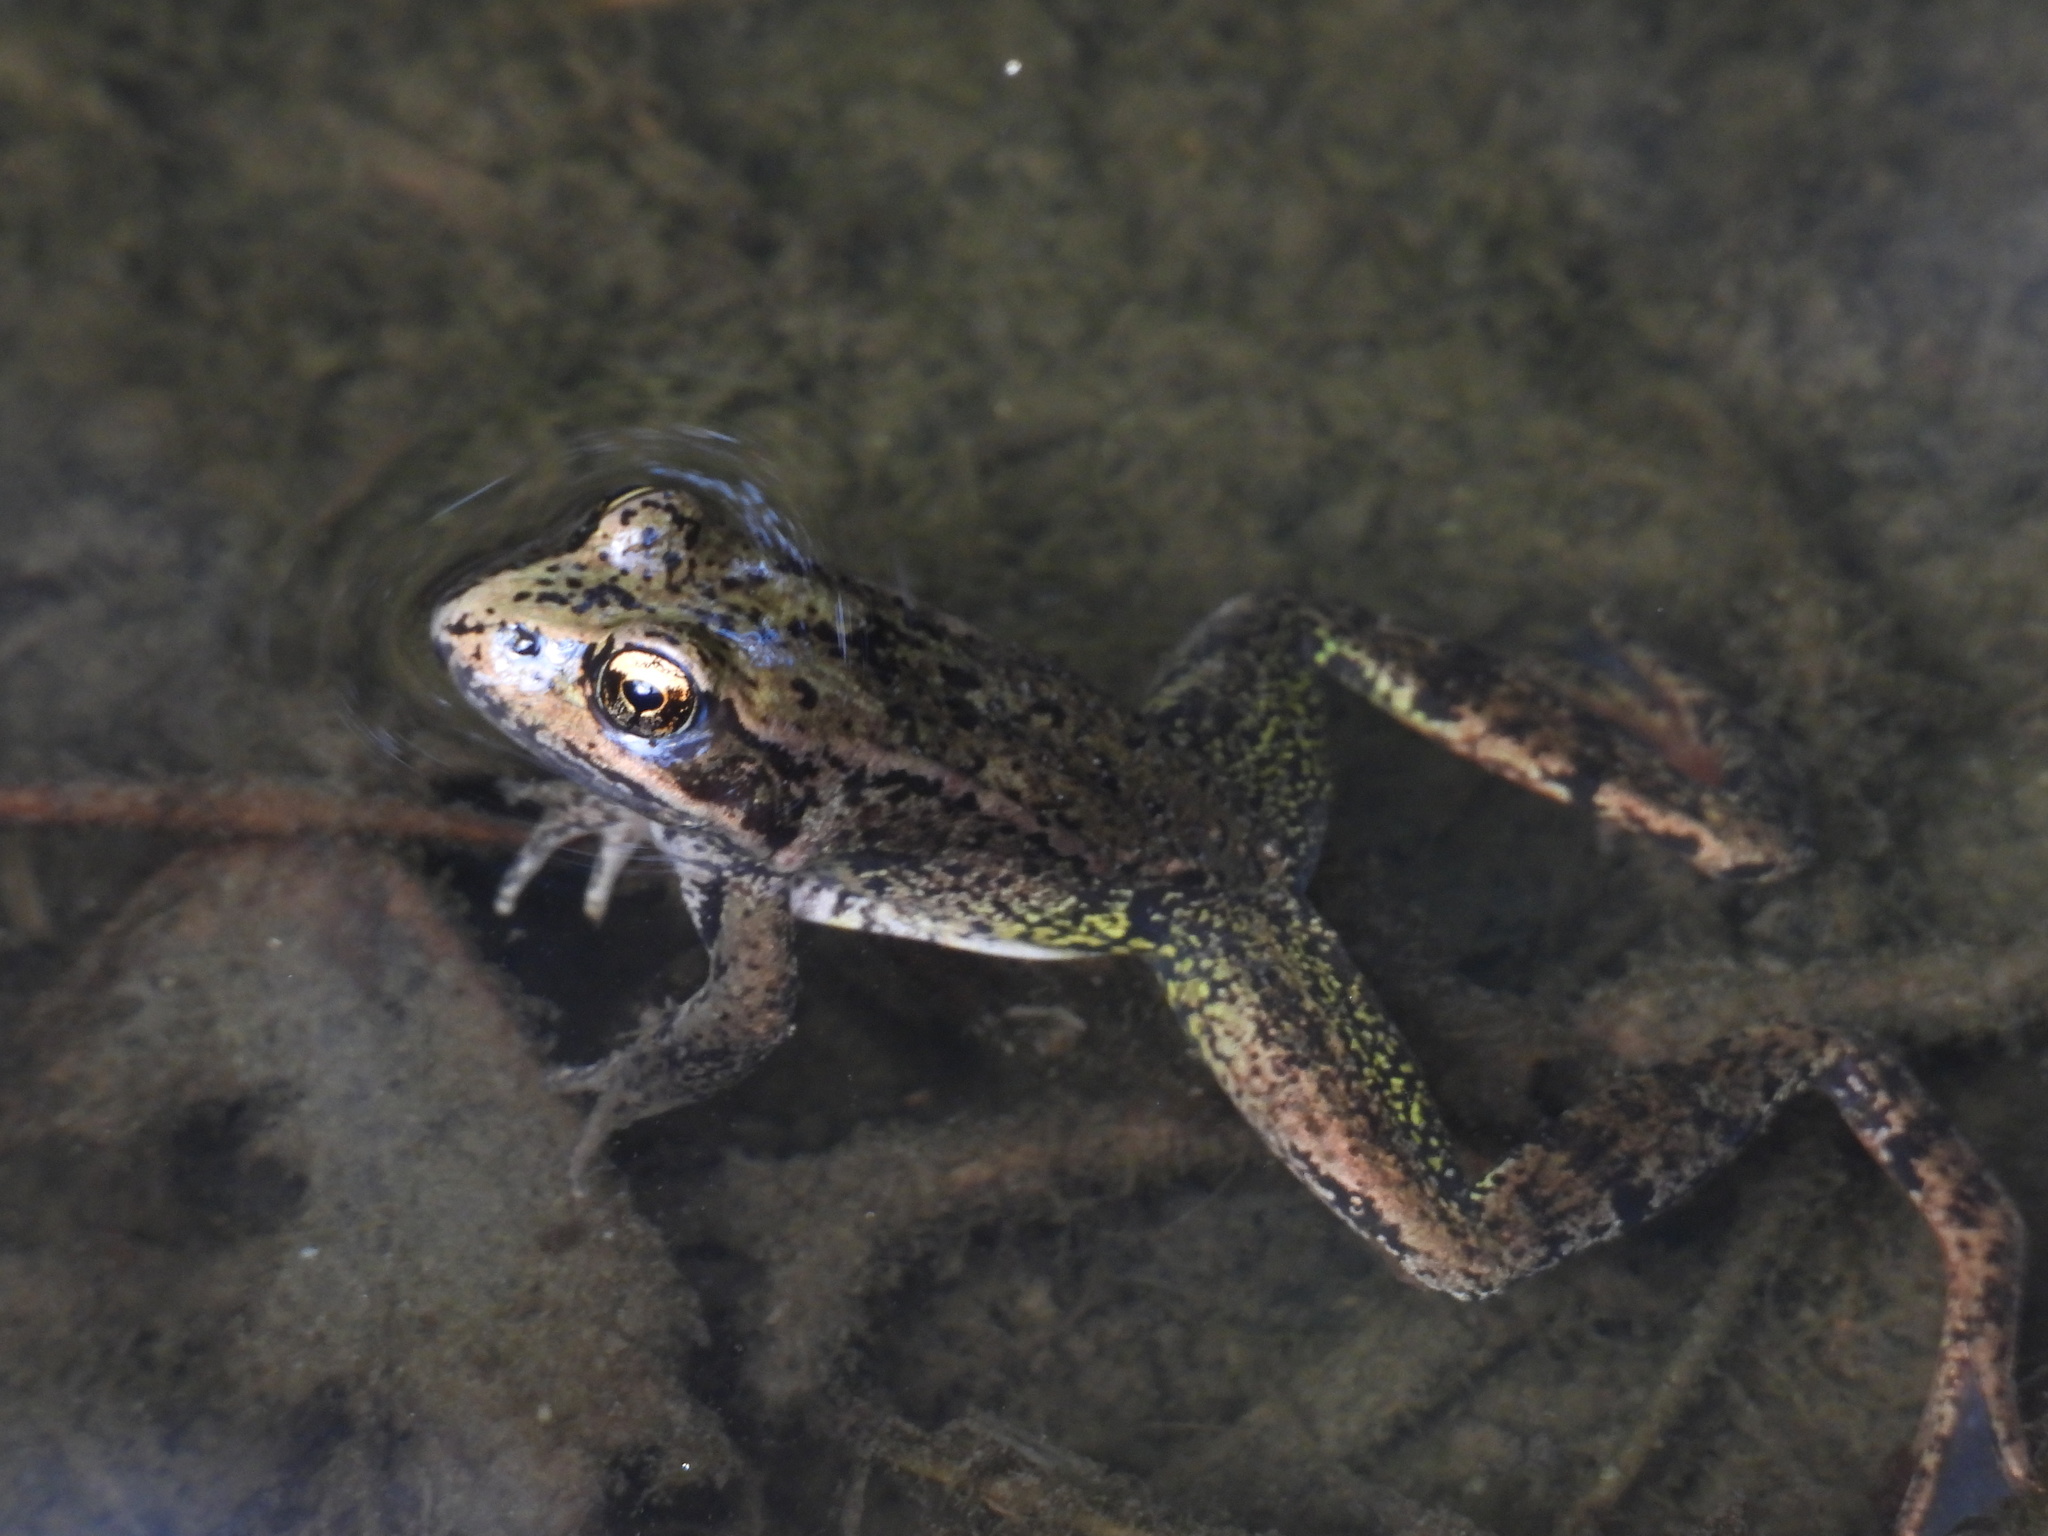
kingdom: Animalia
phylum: Chordata
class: Amphibia
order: Anura
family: Ranidae
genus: Rana
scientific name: Rana aurora
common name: Red-legged frog
